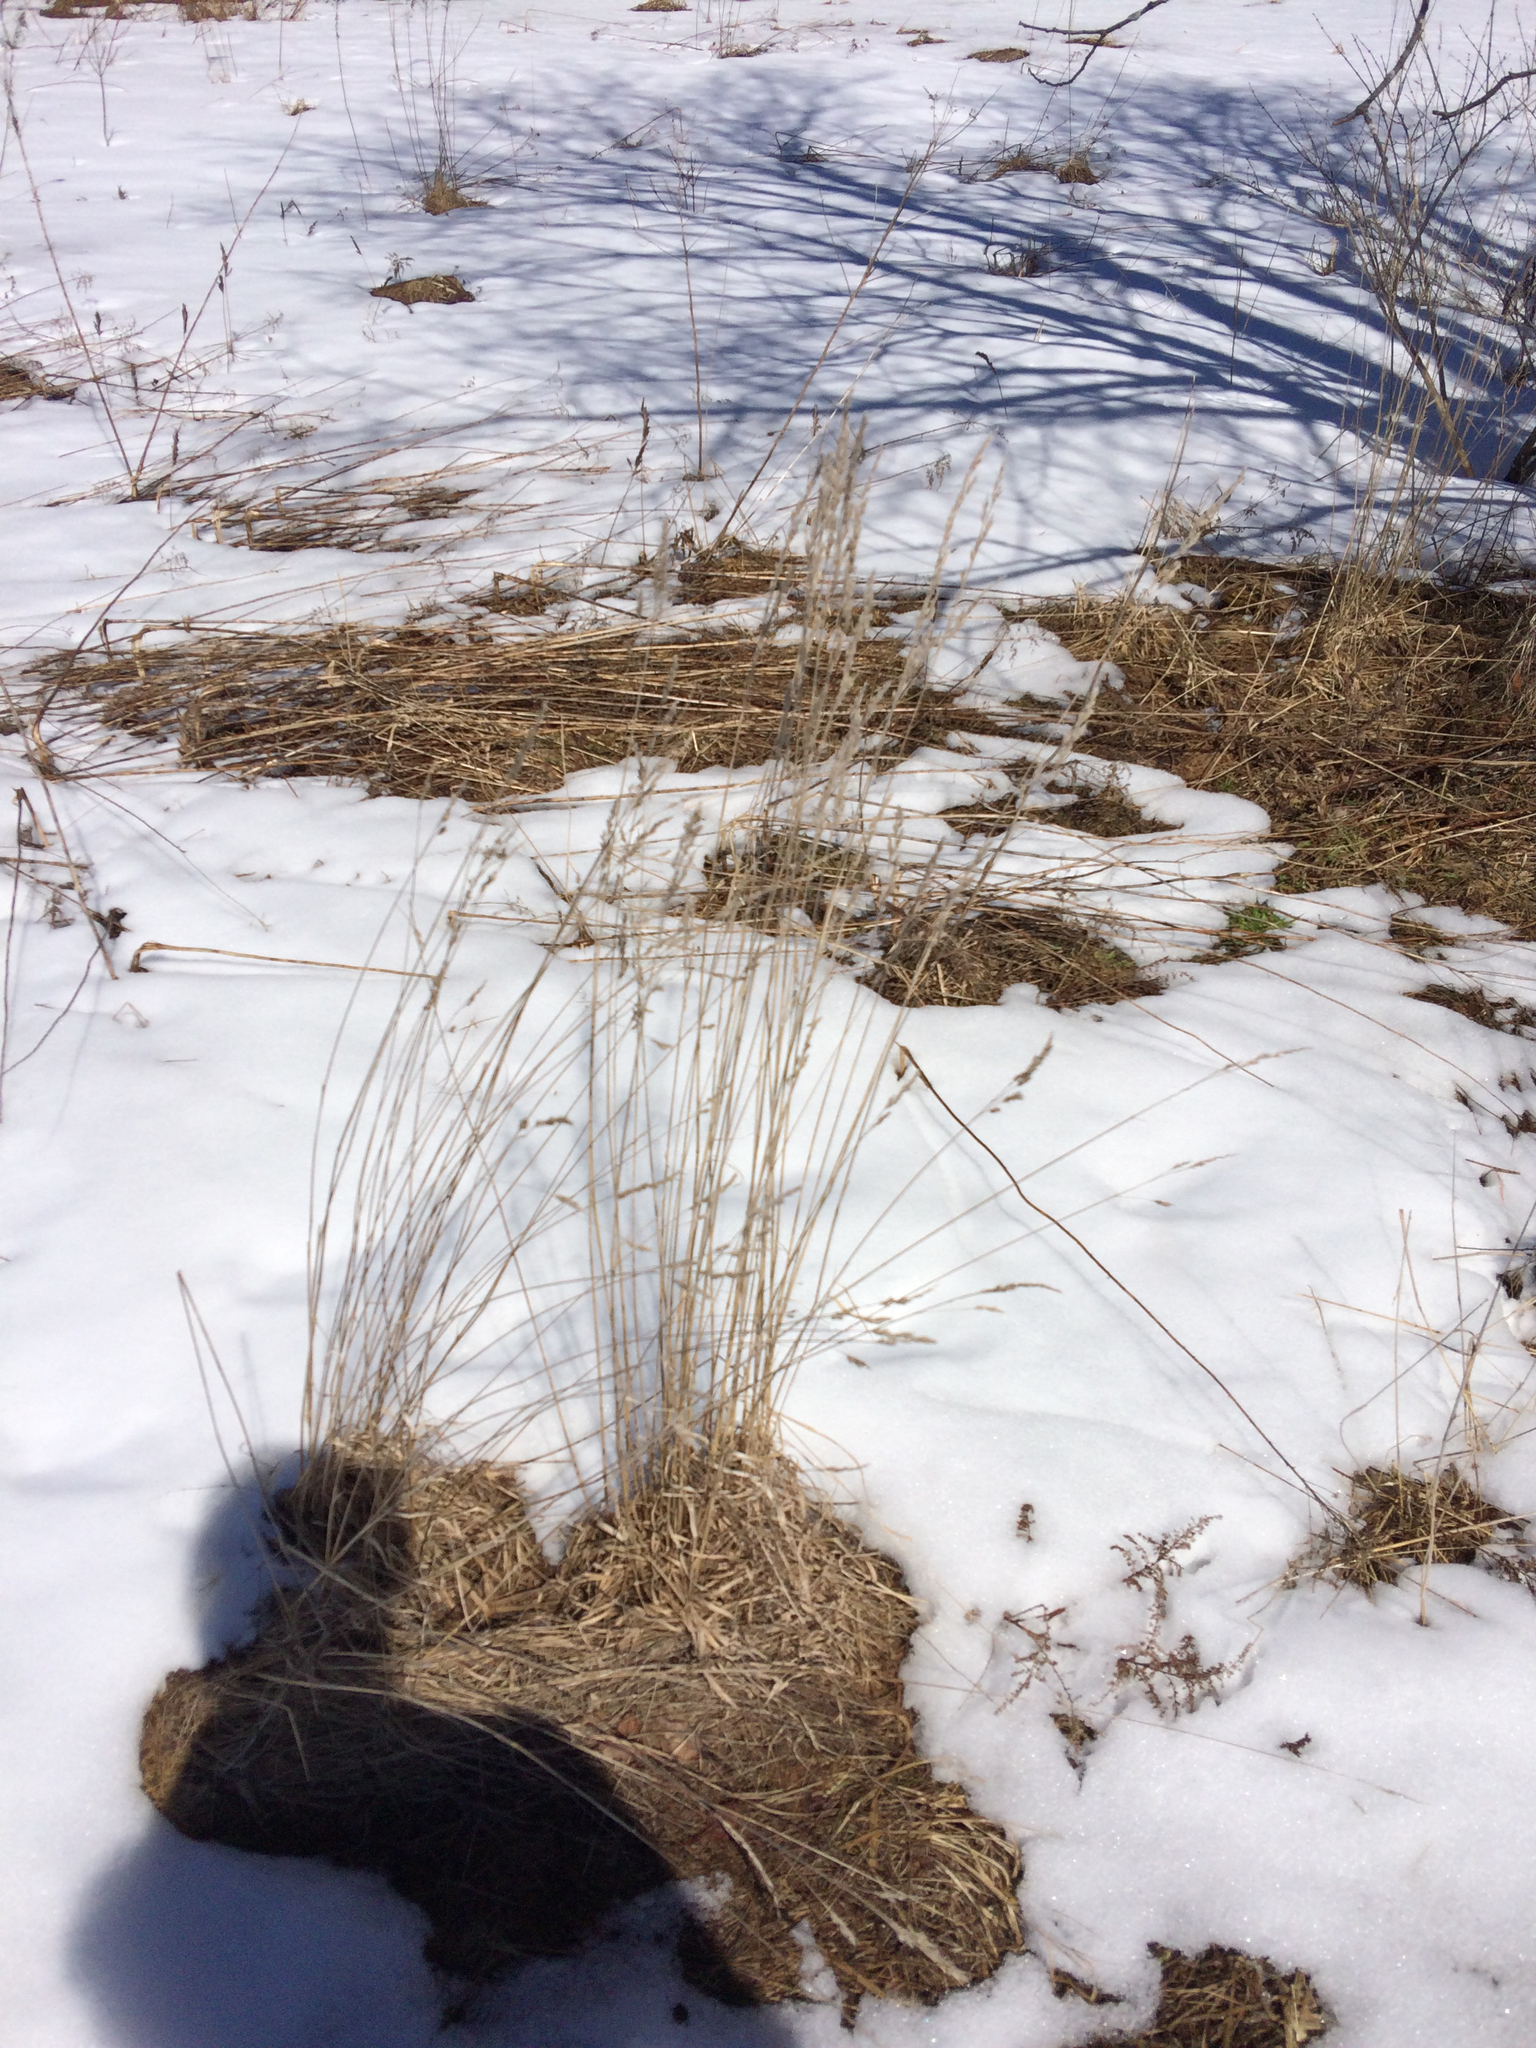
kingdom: Plantae
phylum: Tracheophyta
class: Liliopsida
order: Poales
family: Poaceae
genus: Dactylis
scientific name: Dactylis glomerata
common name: Orchardgrass
